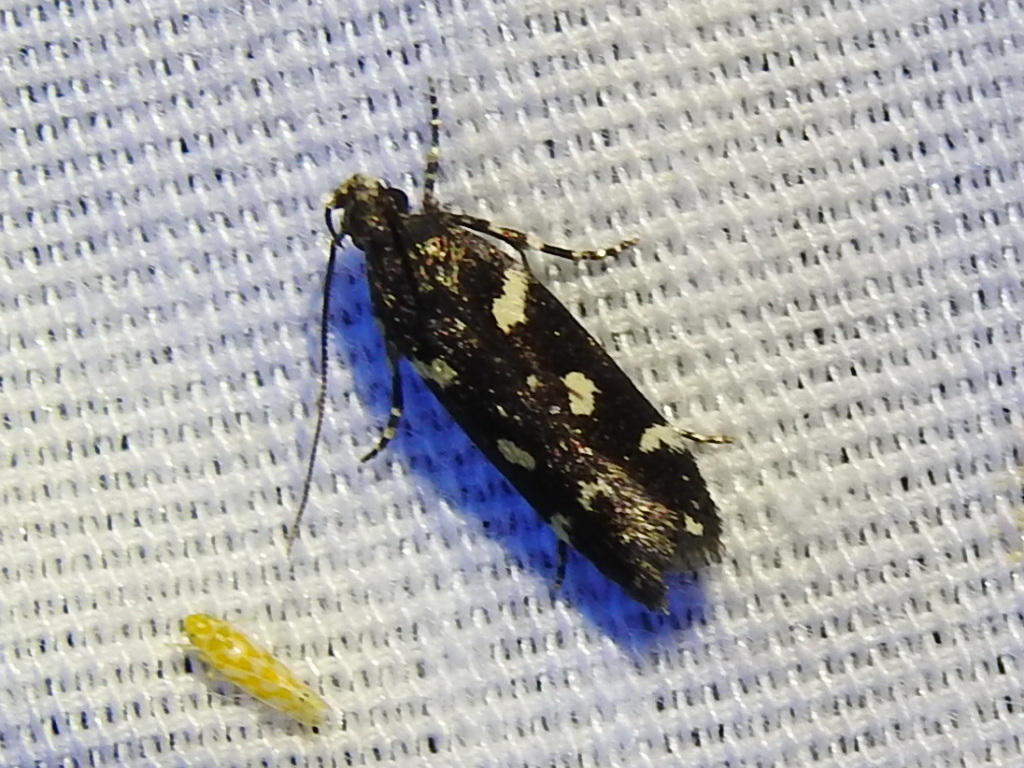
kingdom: Animalia
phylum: Arthropoda
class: Insecta
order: Lepidoptera
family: Gelechiidae
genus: Aroga
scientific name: Aroga compositella
